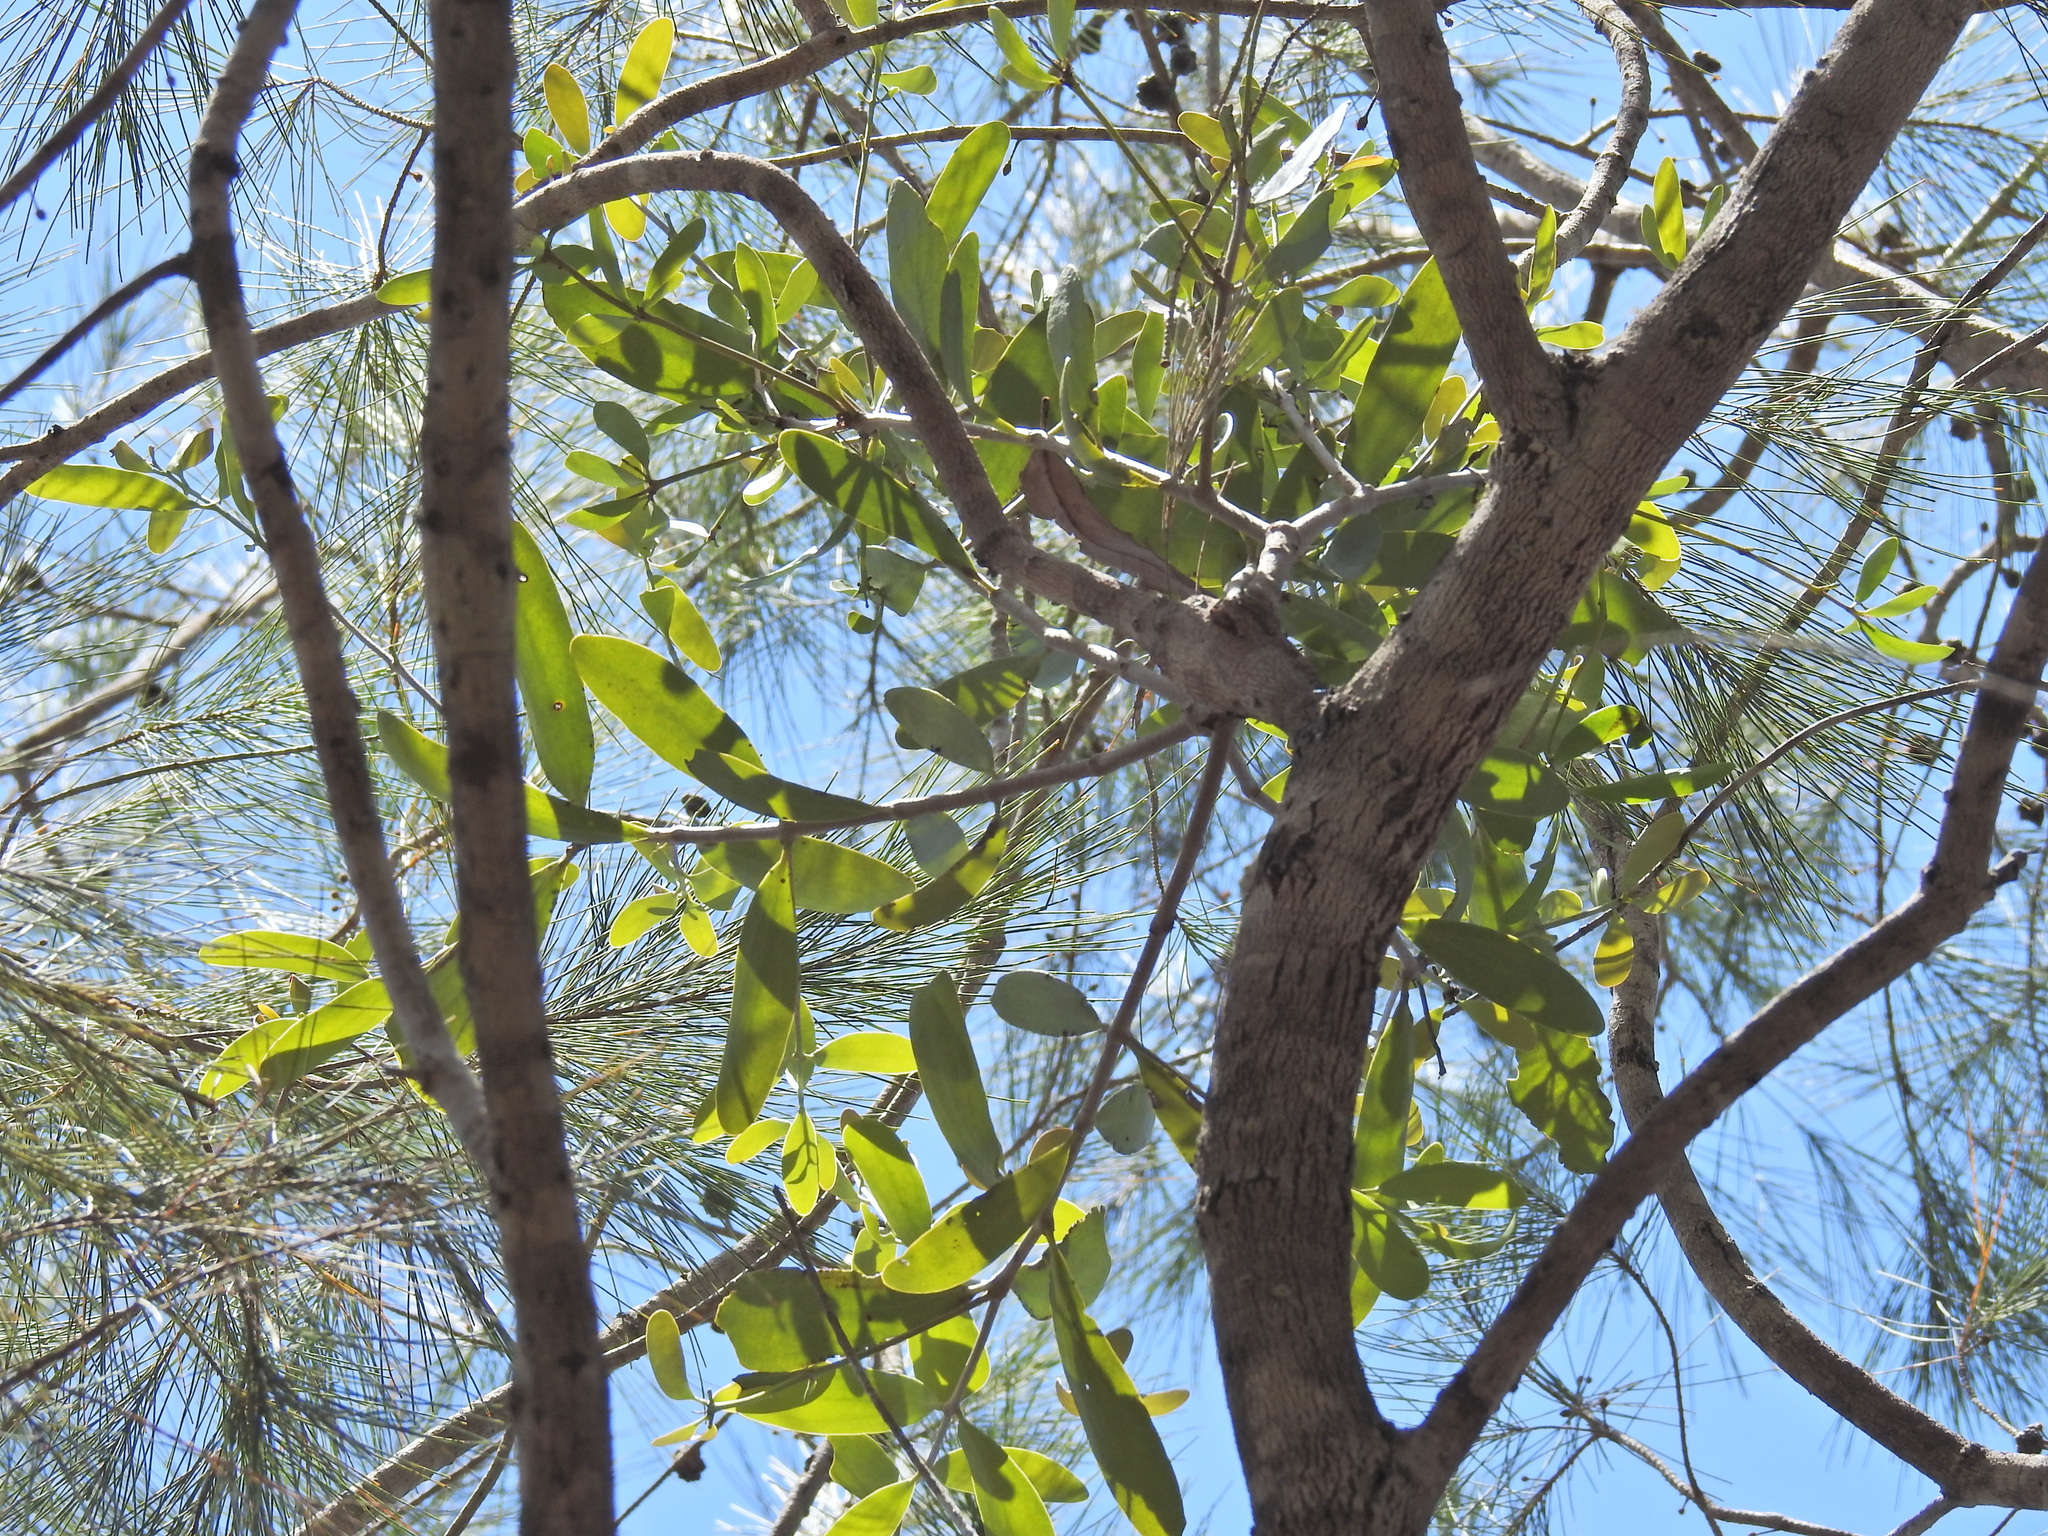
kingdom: Plantae
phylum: Tracheophyta
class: Magnoliopsida
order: Santalales
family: Loranthaceae
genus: Amyema
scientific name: Amyema congener
